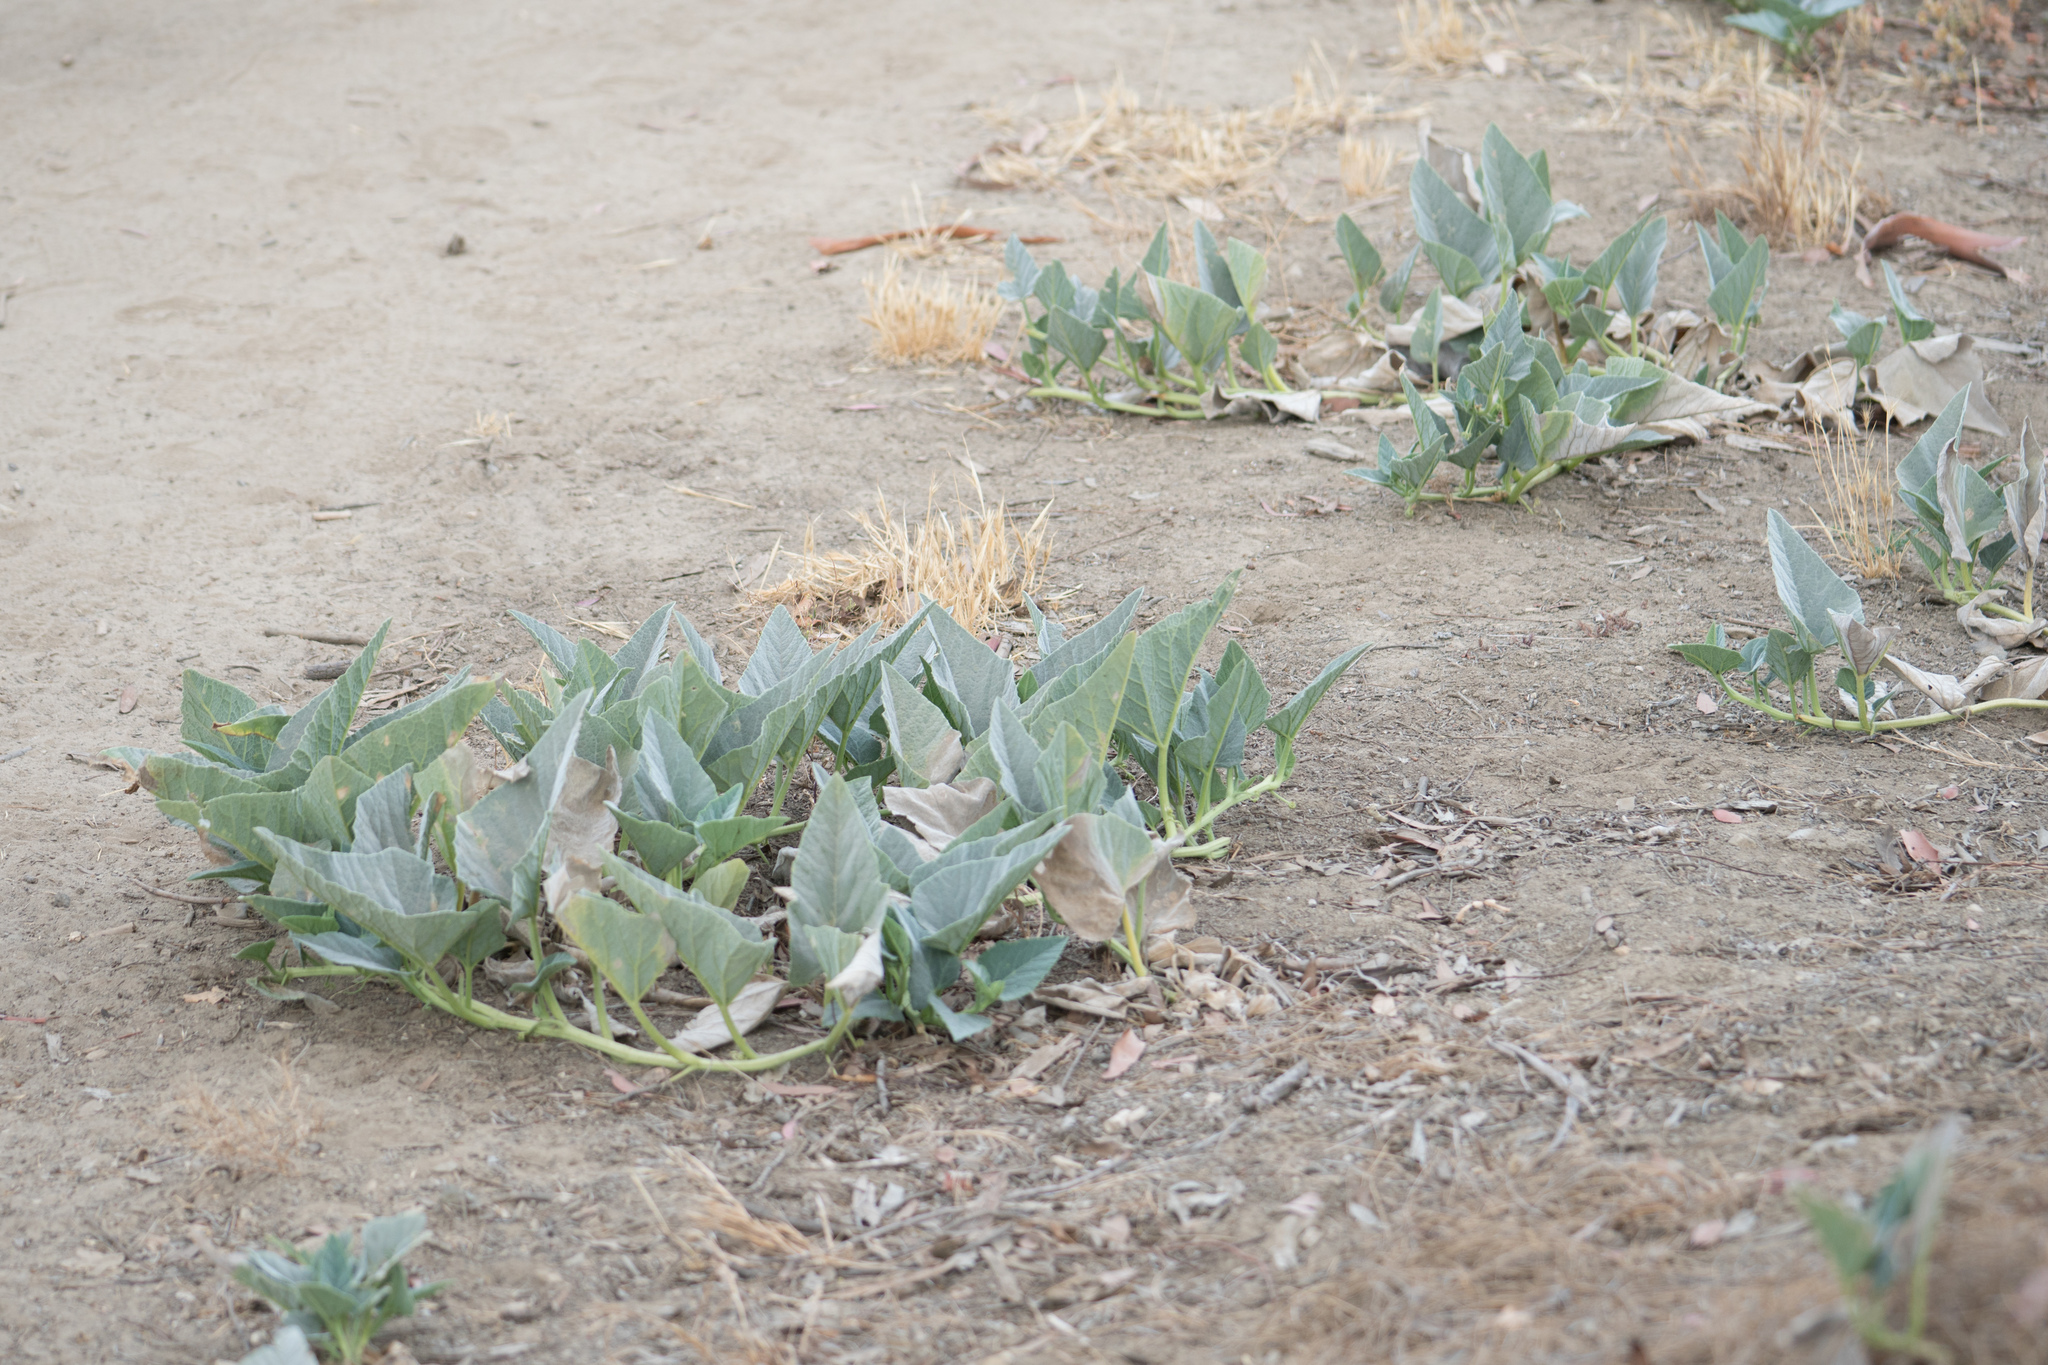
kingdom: Plantae
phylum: Tracheophyta
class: Magnoliopsida
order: Cucurbitales
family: Cucurbitaceae
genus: Cucurbita
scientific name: Cucurbita foetidissima
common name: Buffalo gourd
